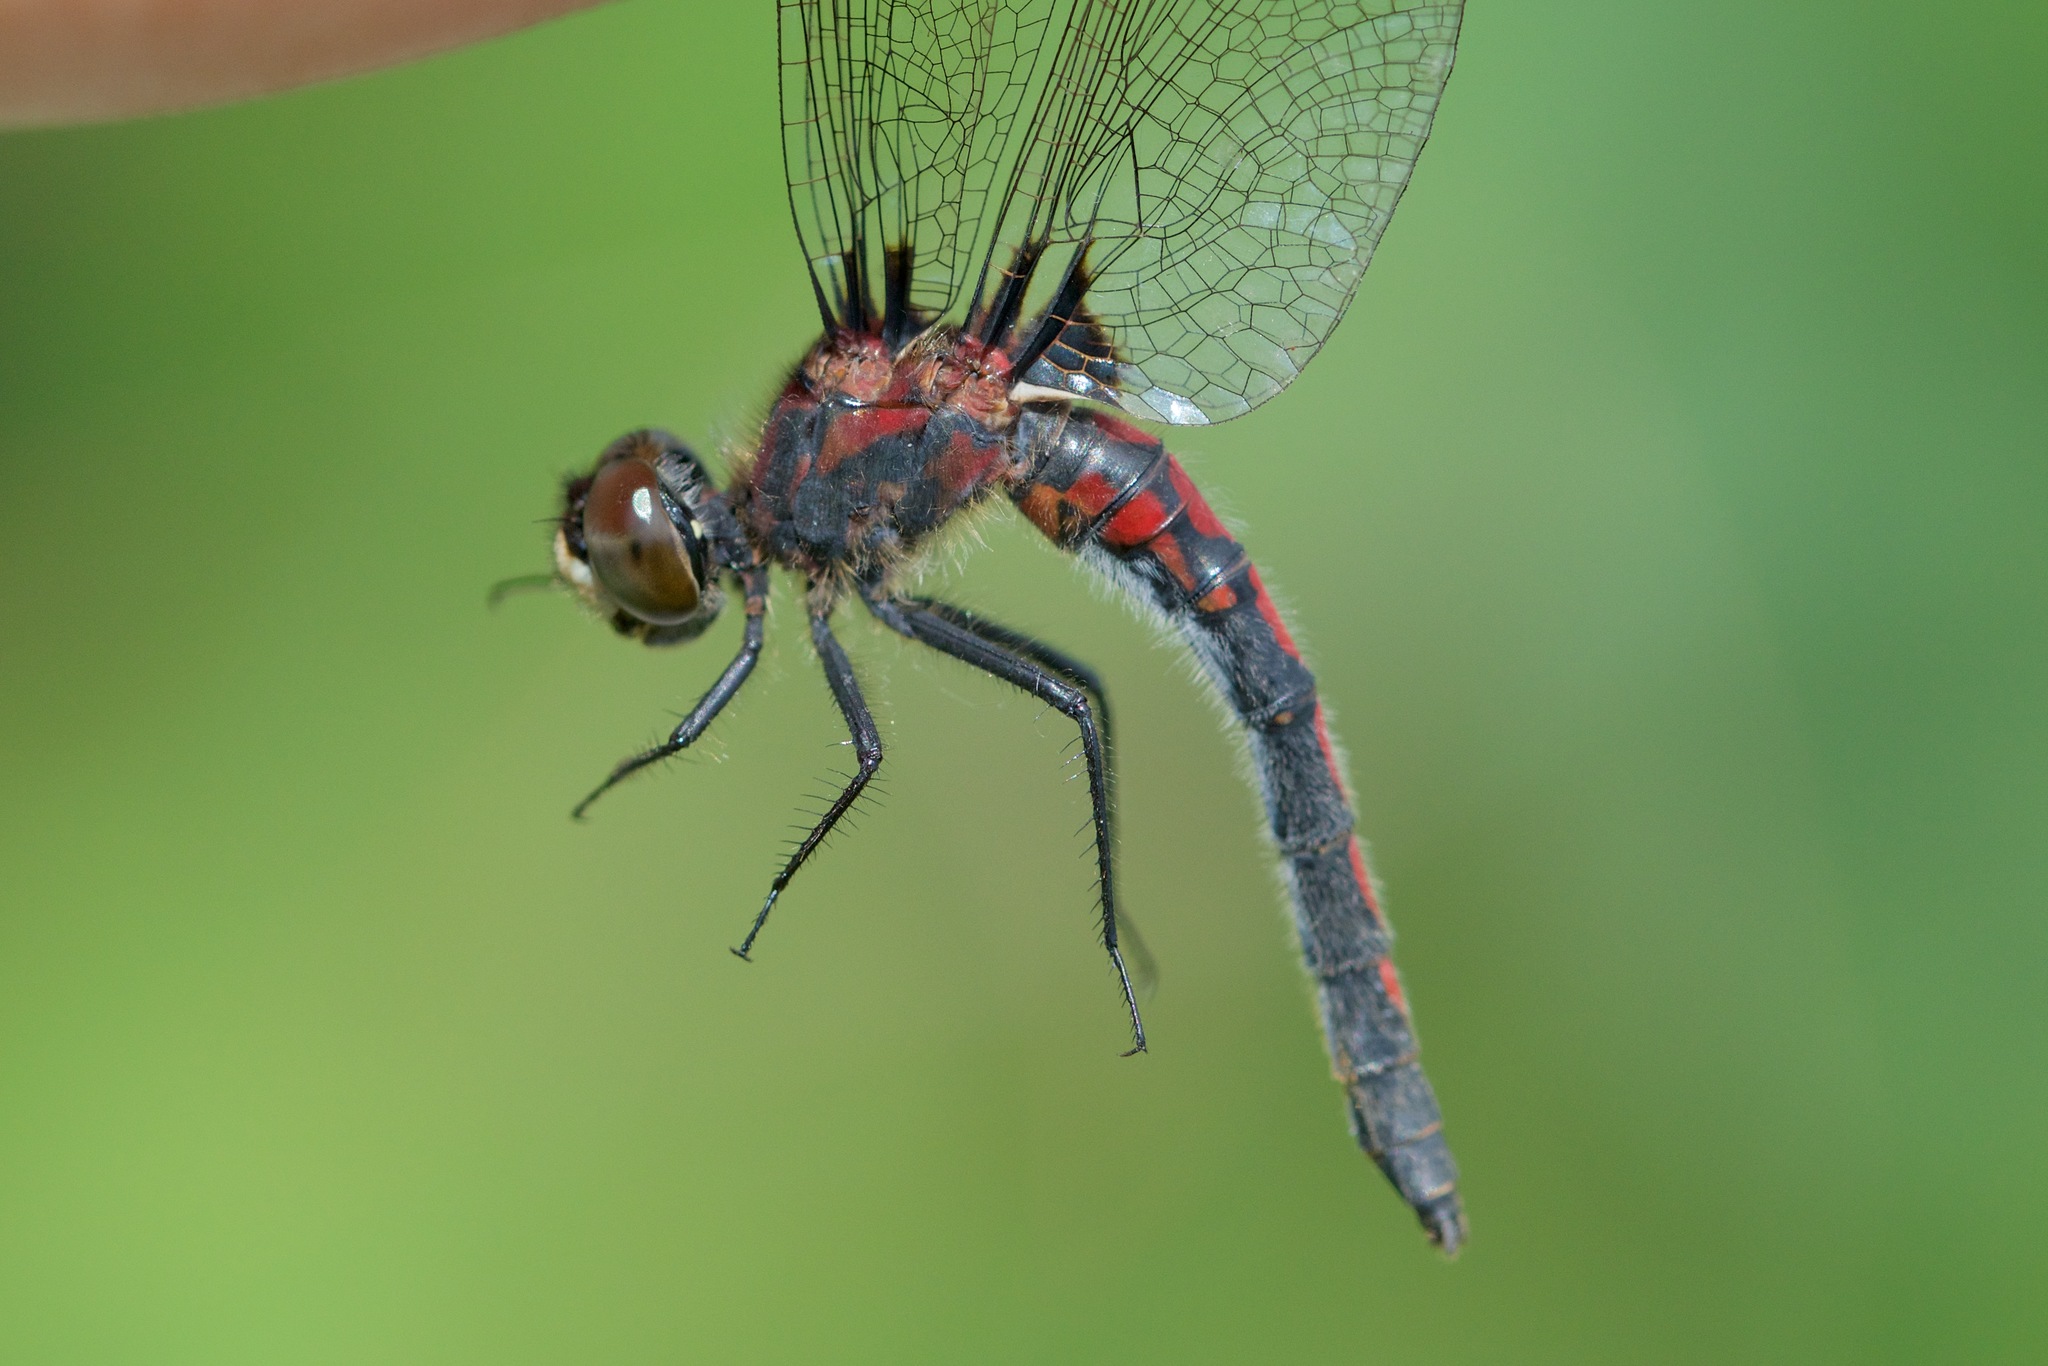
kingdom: Animalia
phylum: Arthropoda
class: Insecta
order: Odonata
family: Libellulidae
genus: Leucorrhinia
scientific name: Leucorrhinia hudsonica
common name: Hudsonian whiteface
